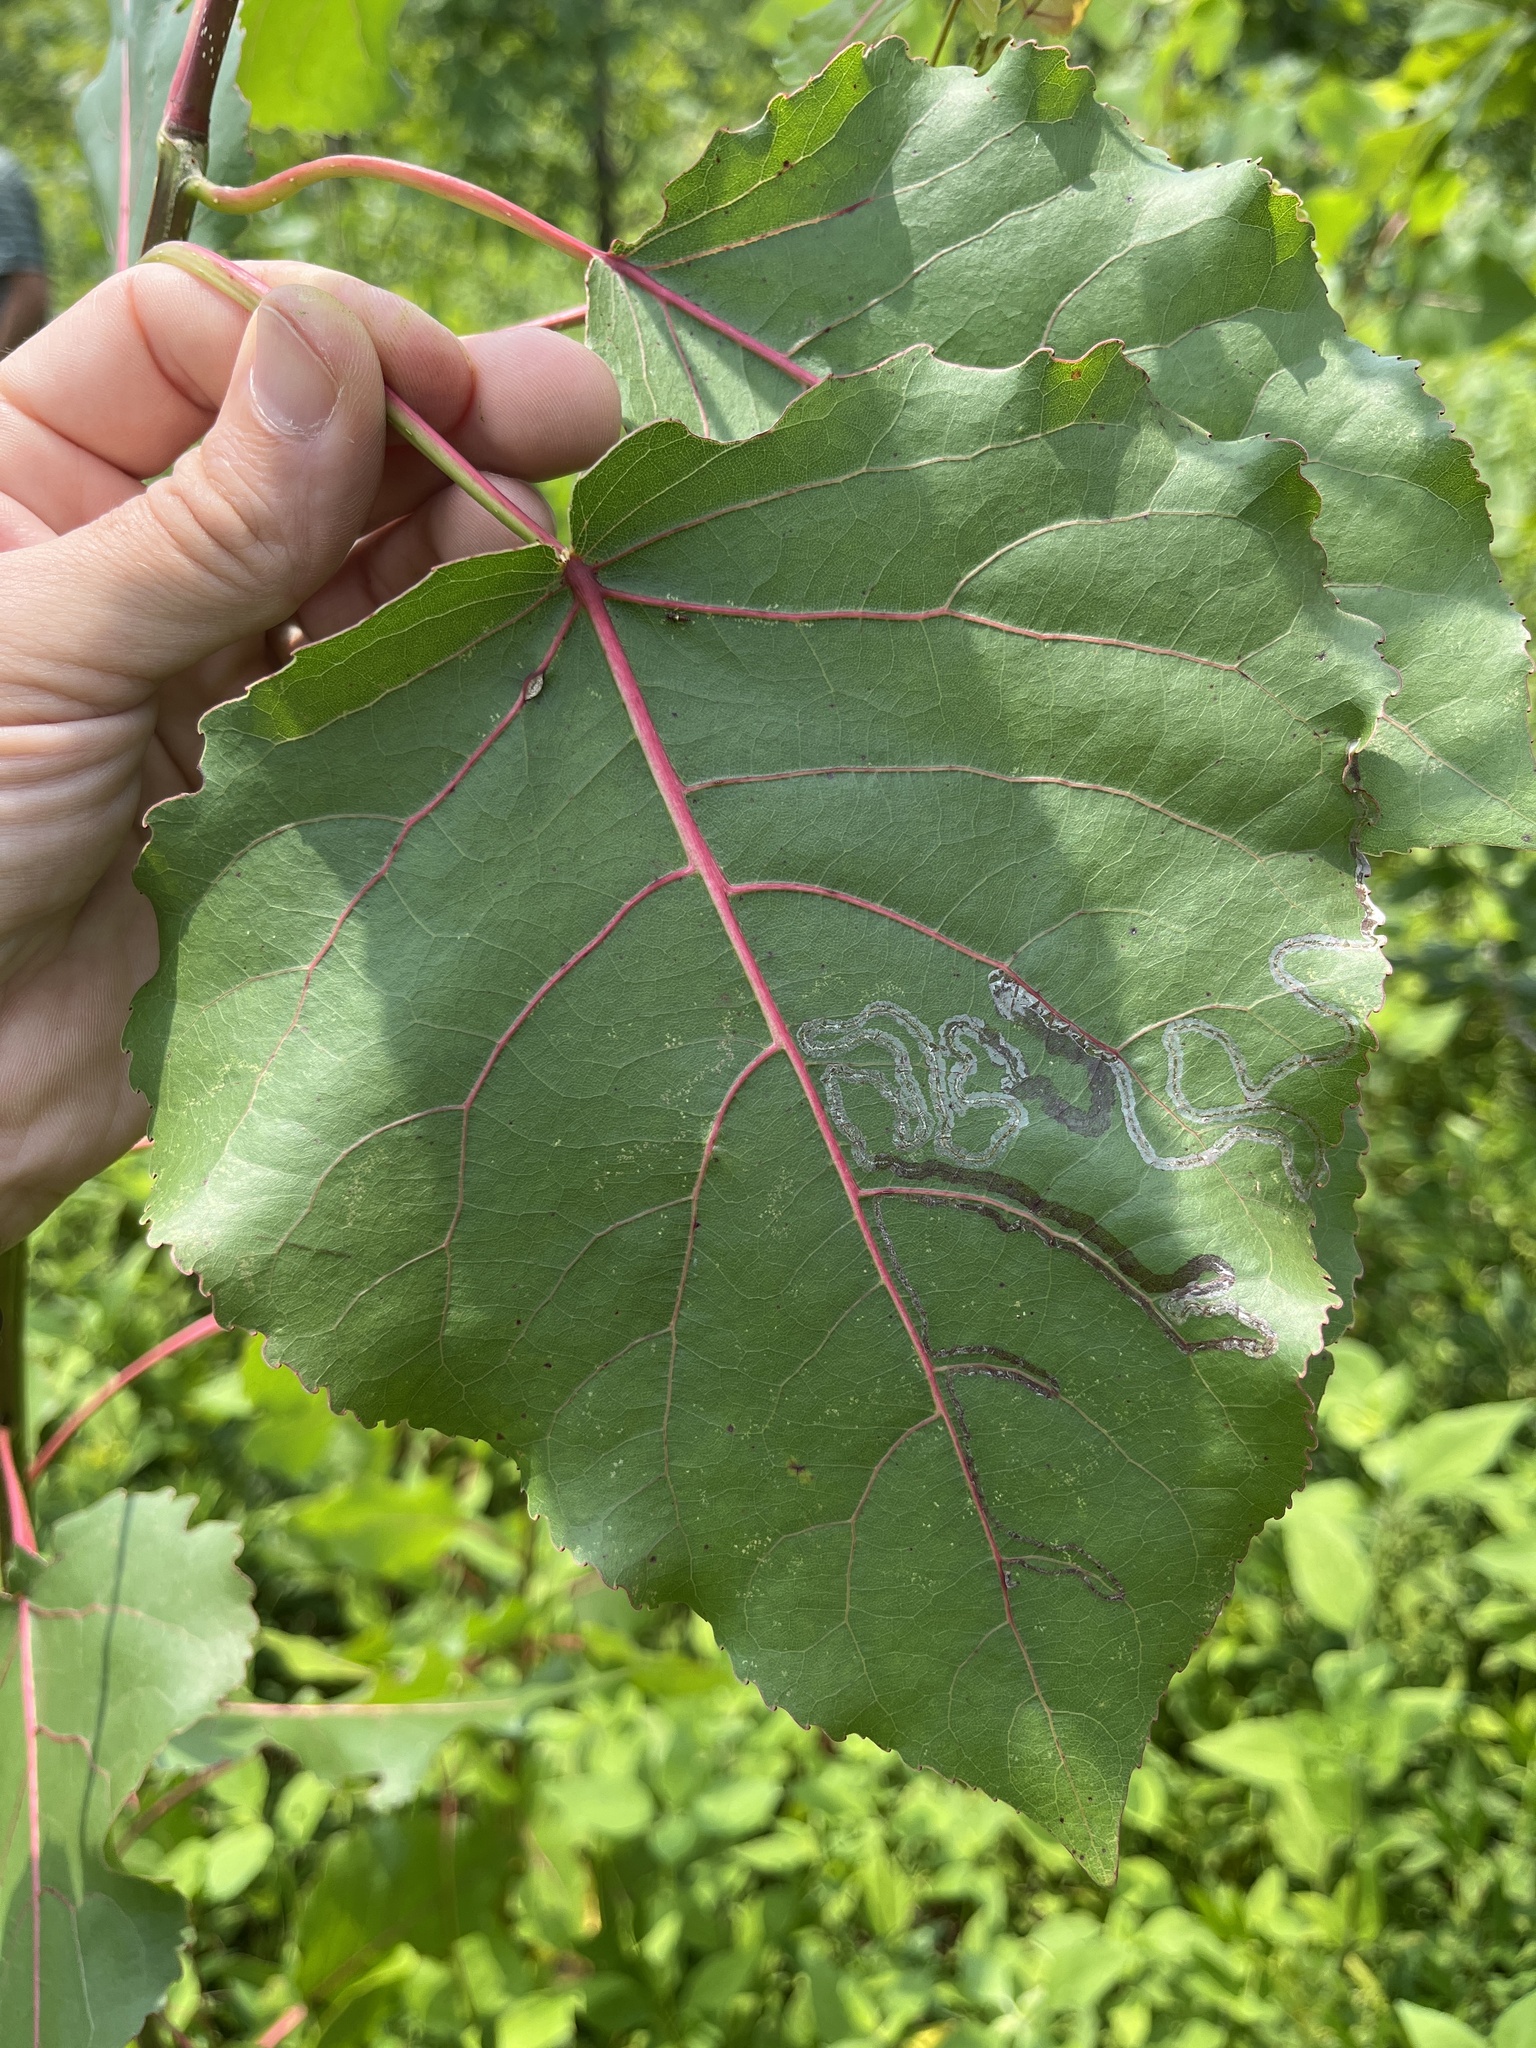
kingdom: Animalia
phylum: Arthropoda
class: Insecta
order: Lepidoptera
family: Gracillariidae
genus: Phyllocnistis
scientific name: Phyllocnistis populiella
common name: Aspen serpentine leafminer moth
